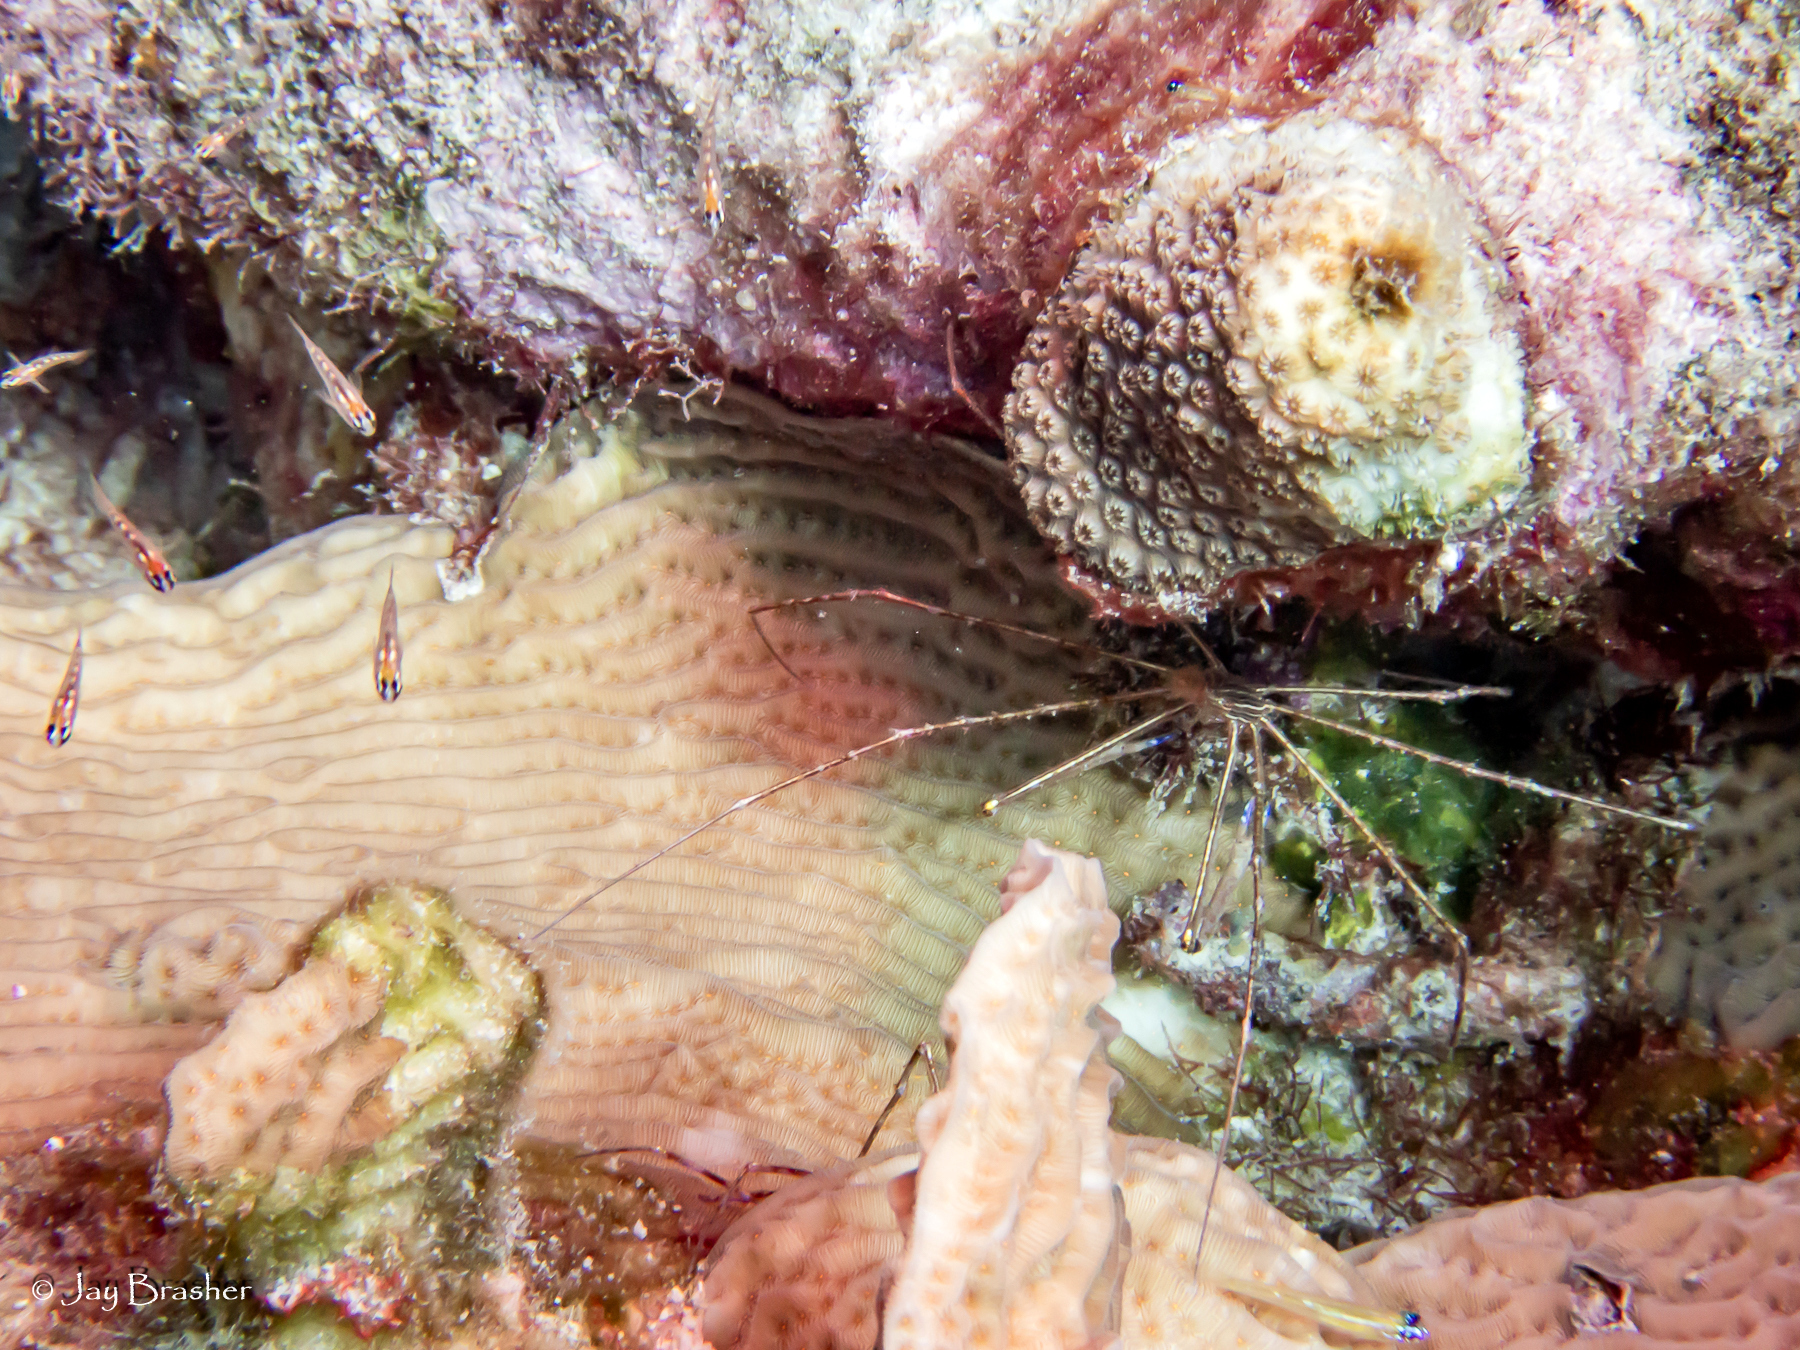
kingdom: Animalia
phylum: Arthropoda
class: Malacostraca
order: Decapoda
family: Inachoididae
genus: Stenorhynchus
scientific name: Stenorhynchus seticornis
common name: Arrow crab
